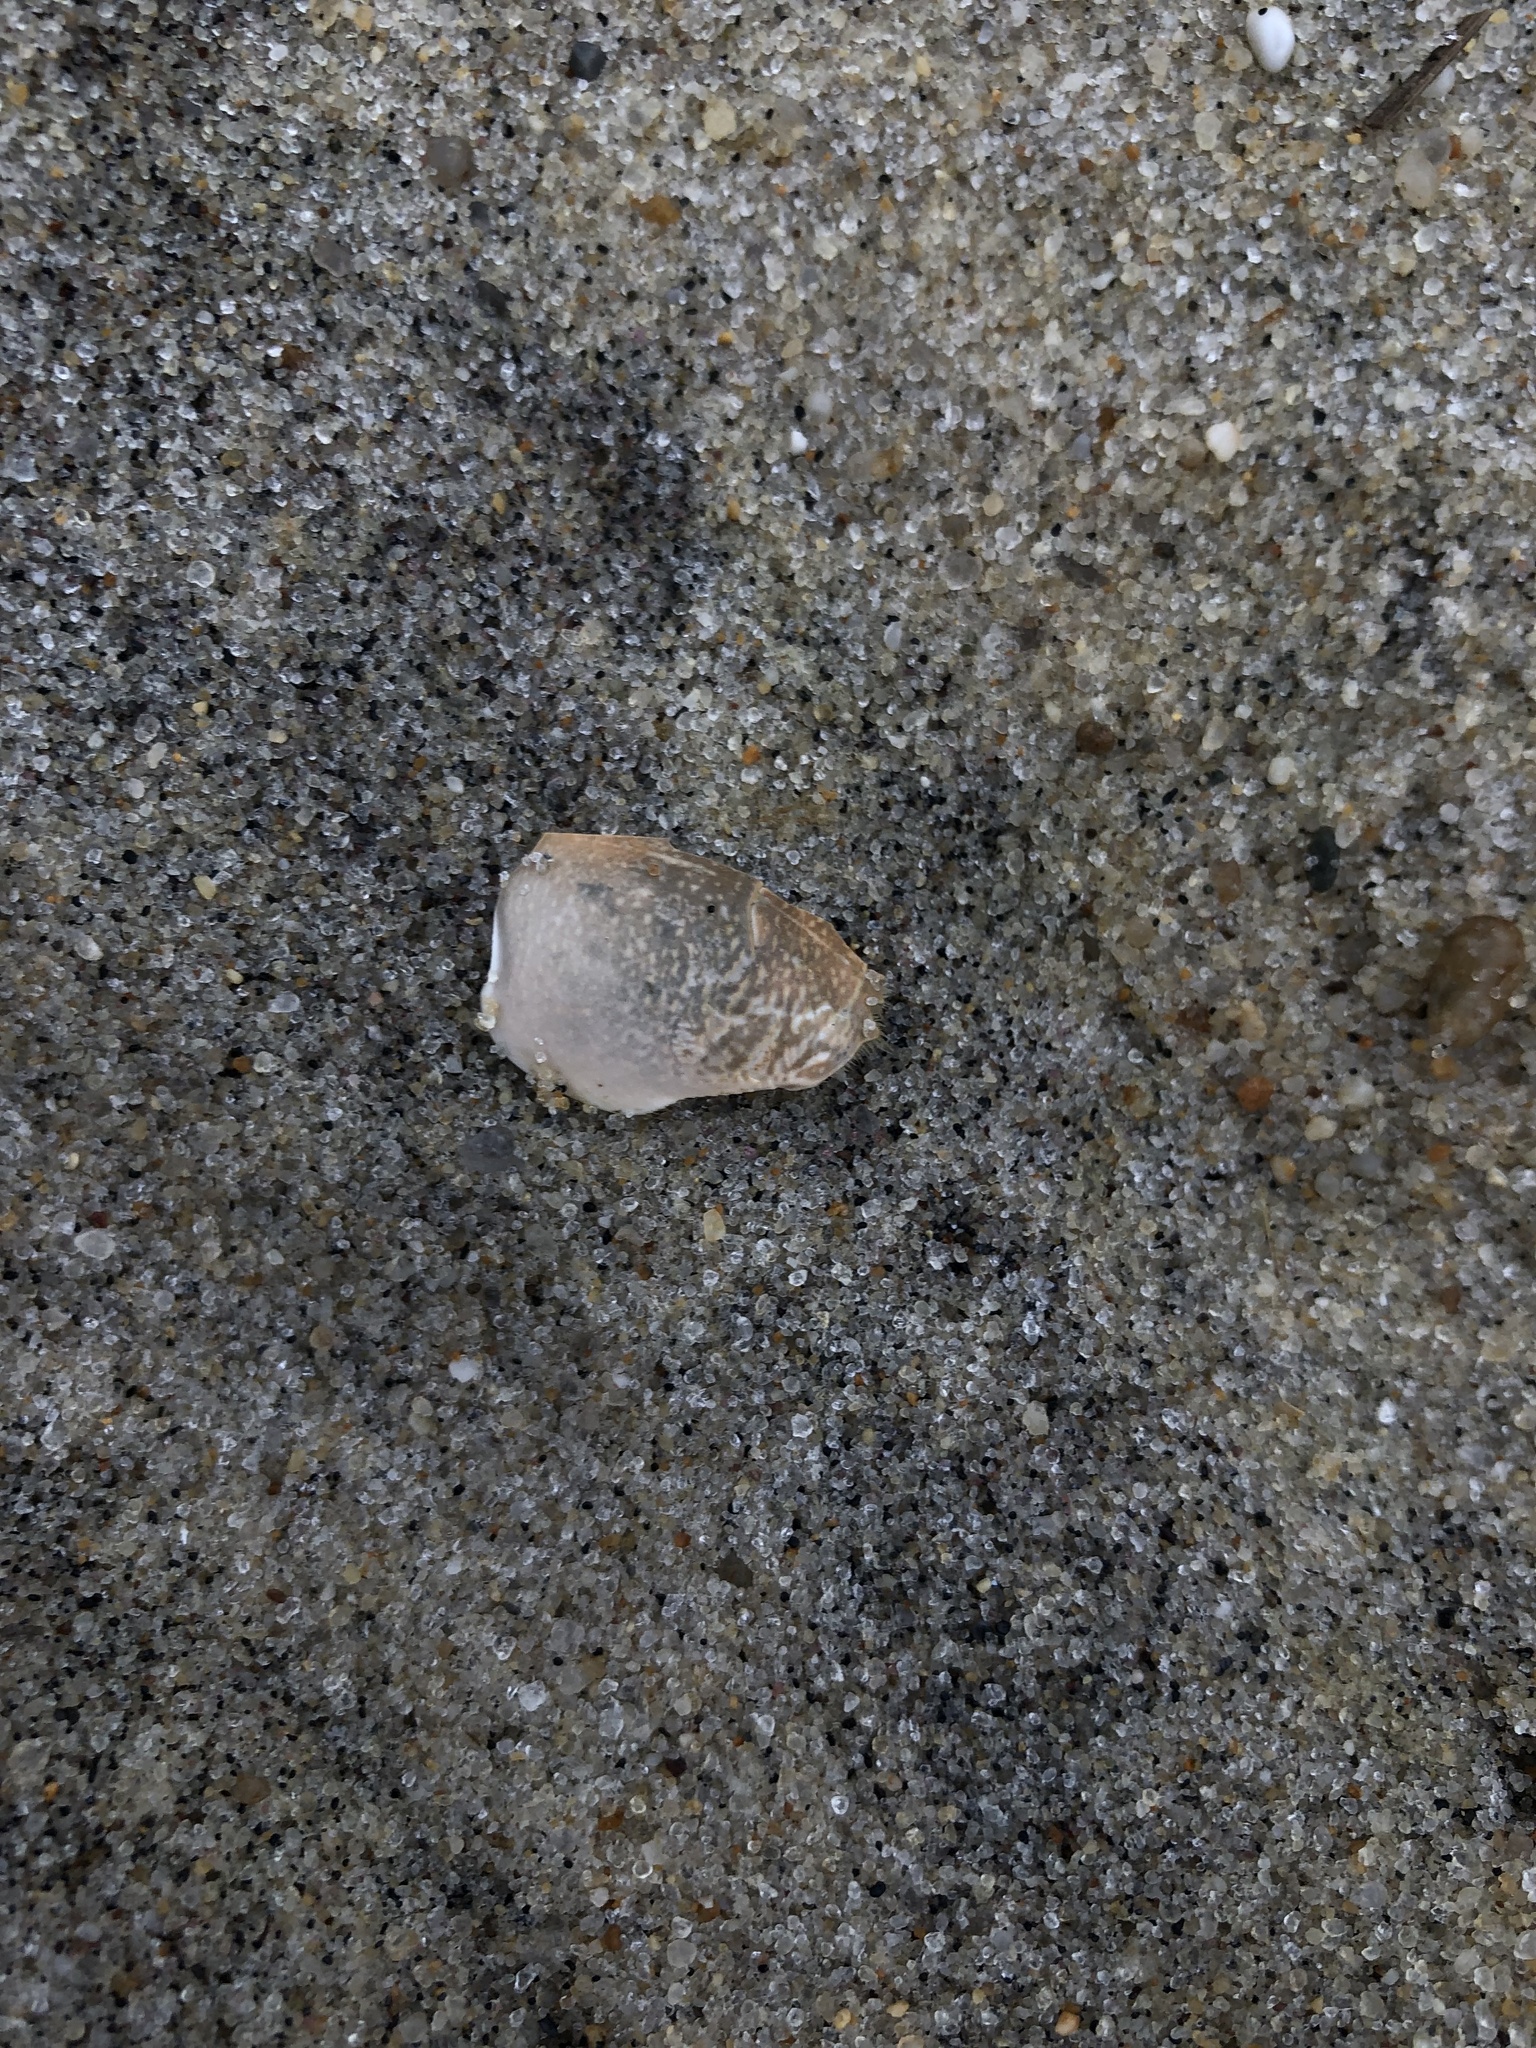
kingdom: Animalia
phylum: Arthropoda
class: Malacostraca
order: Decapoda
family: Hippidae
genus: Emerita
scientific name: Emerita talpoida
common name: Atlantic sand crab
